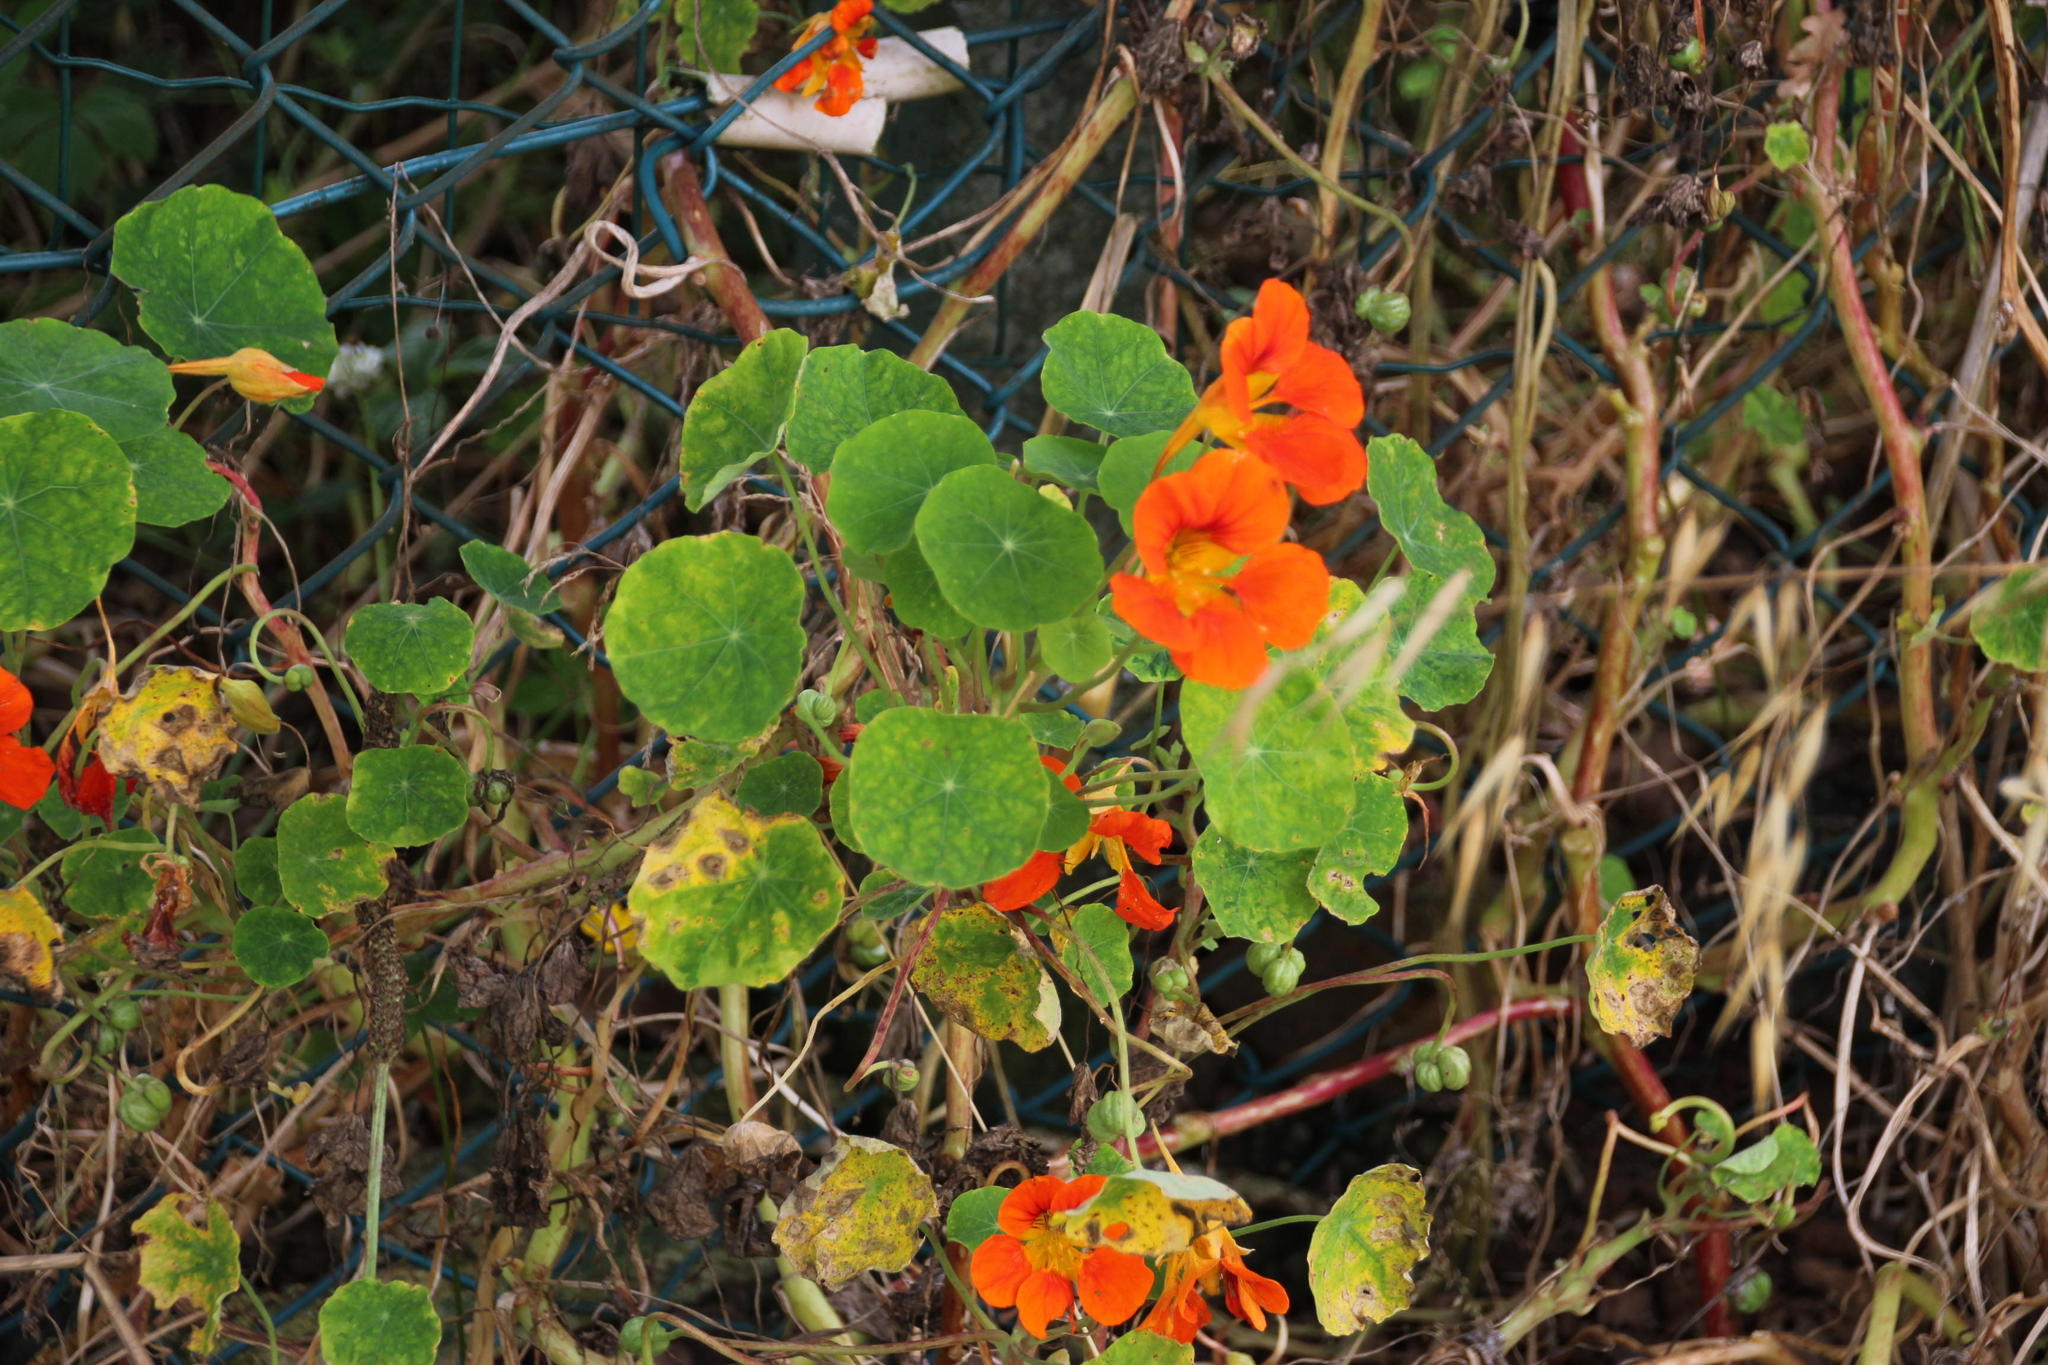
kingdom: Plantae
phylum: Tracheophyta
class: Magnoliopsida
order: Brassicales
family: Tropaeolaceae
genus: Tropaeolum
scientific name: Tropaeolum majus
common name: Nasturtium
